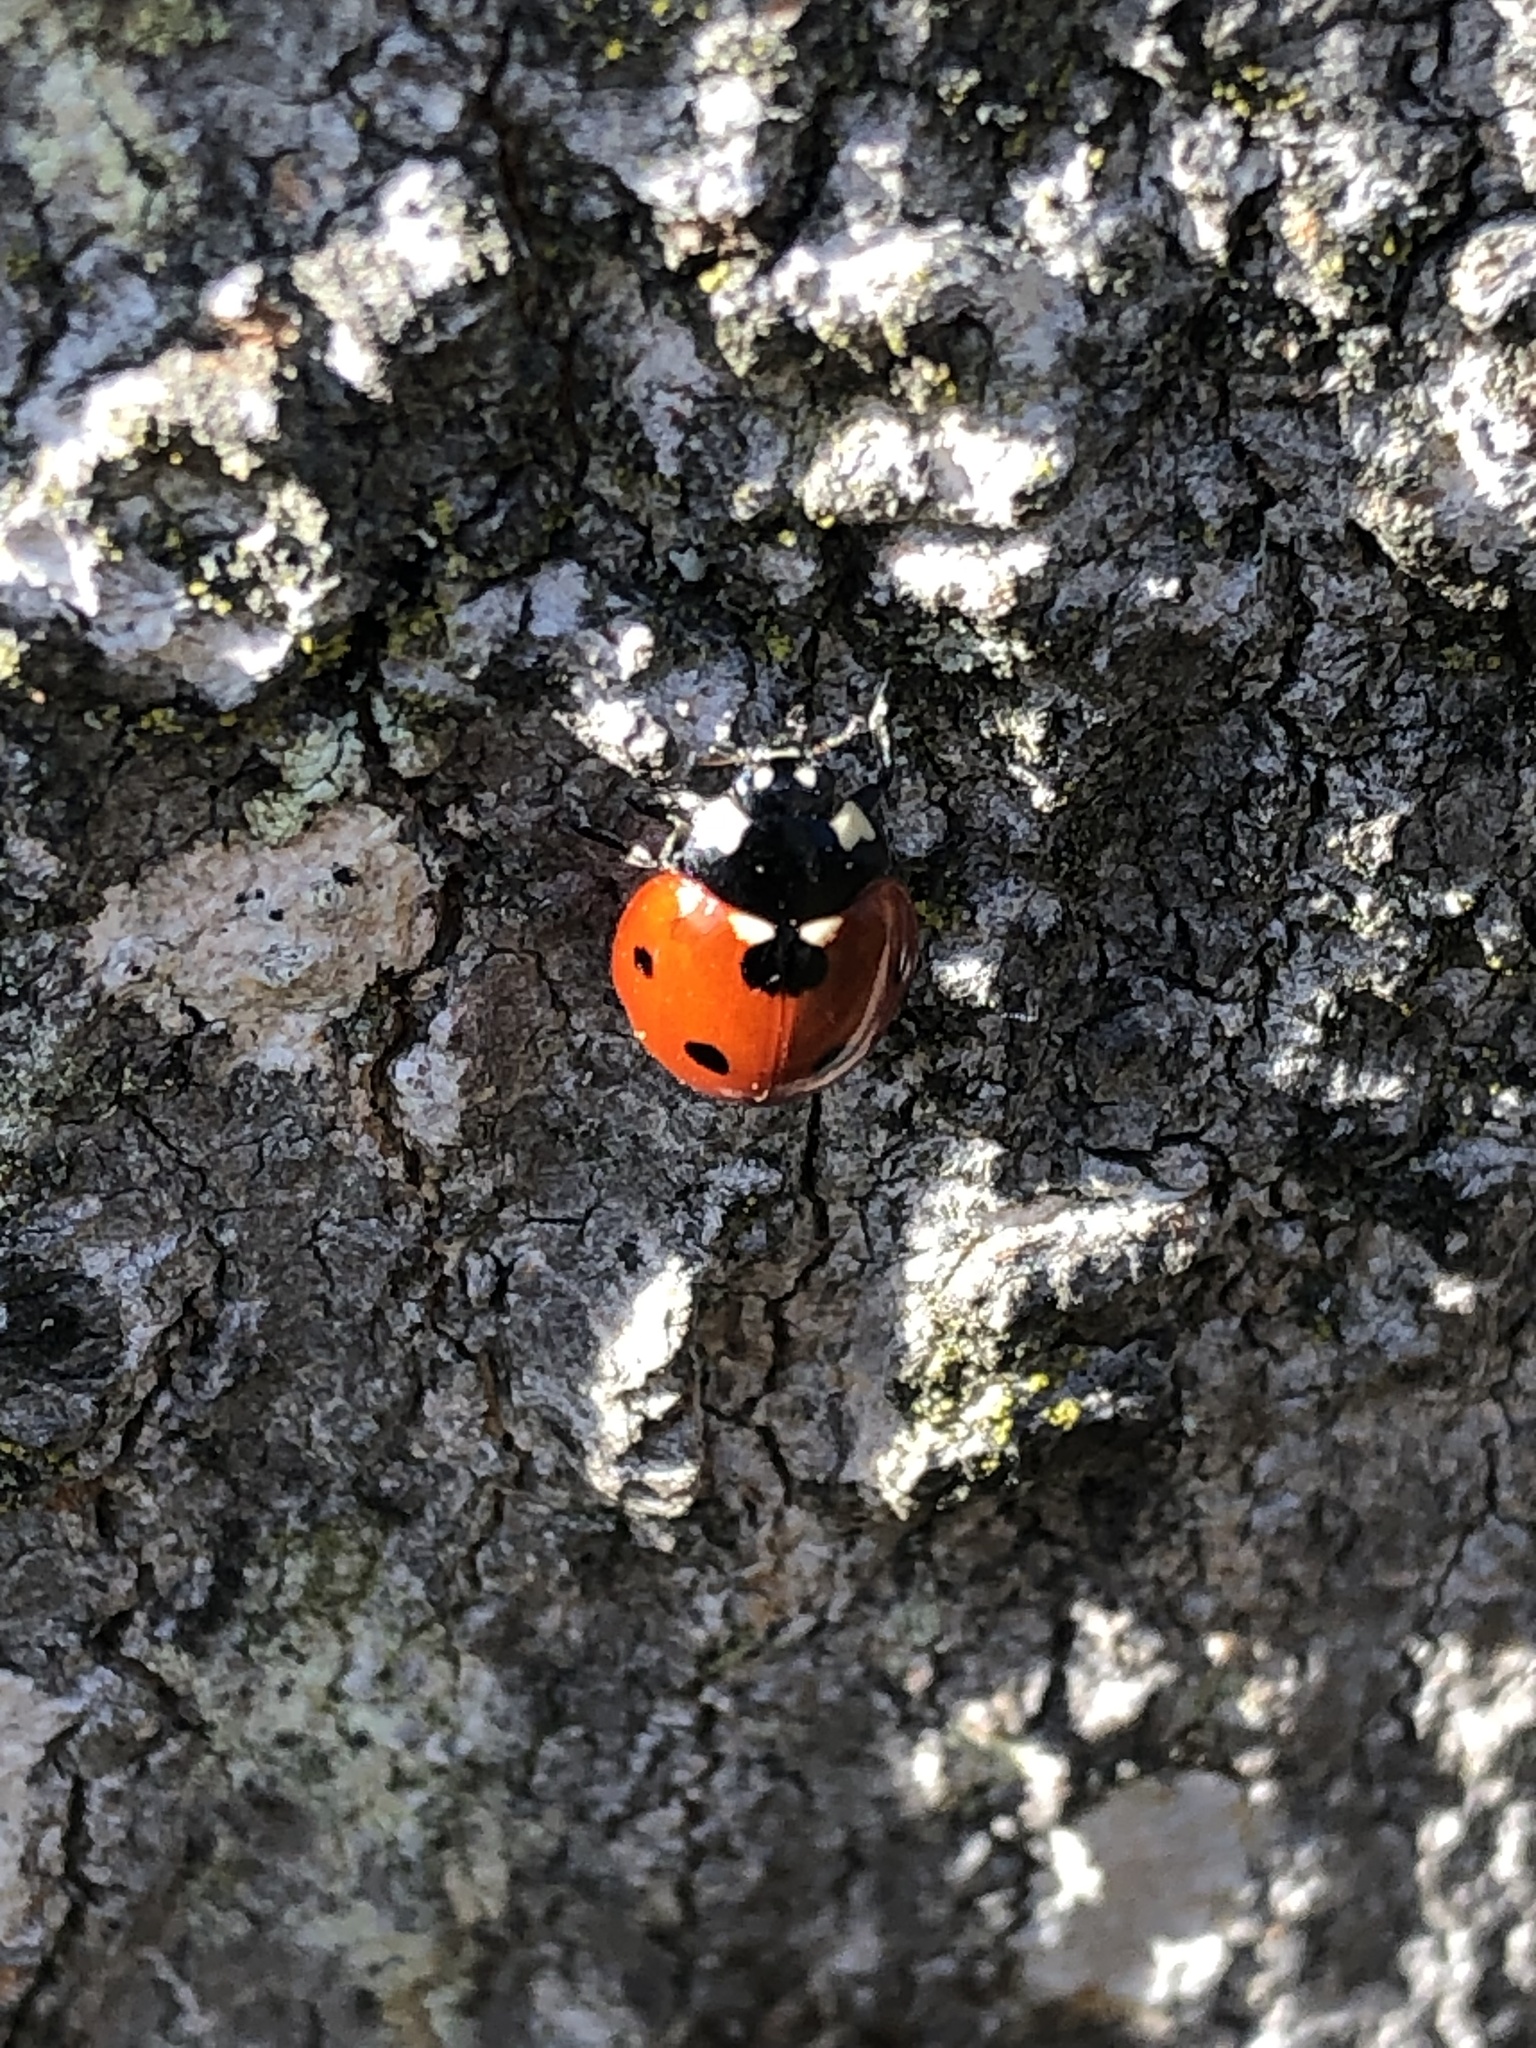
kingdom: Animalia
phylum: Arthropoda
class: Insecta
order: Coleoptera
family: Coccinellidae
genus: Coccinella
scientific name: Coccinella septempunctata
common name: Sevenspotted lady beetle
